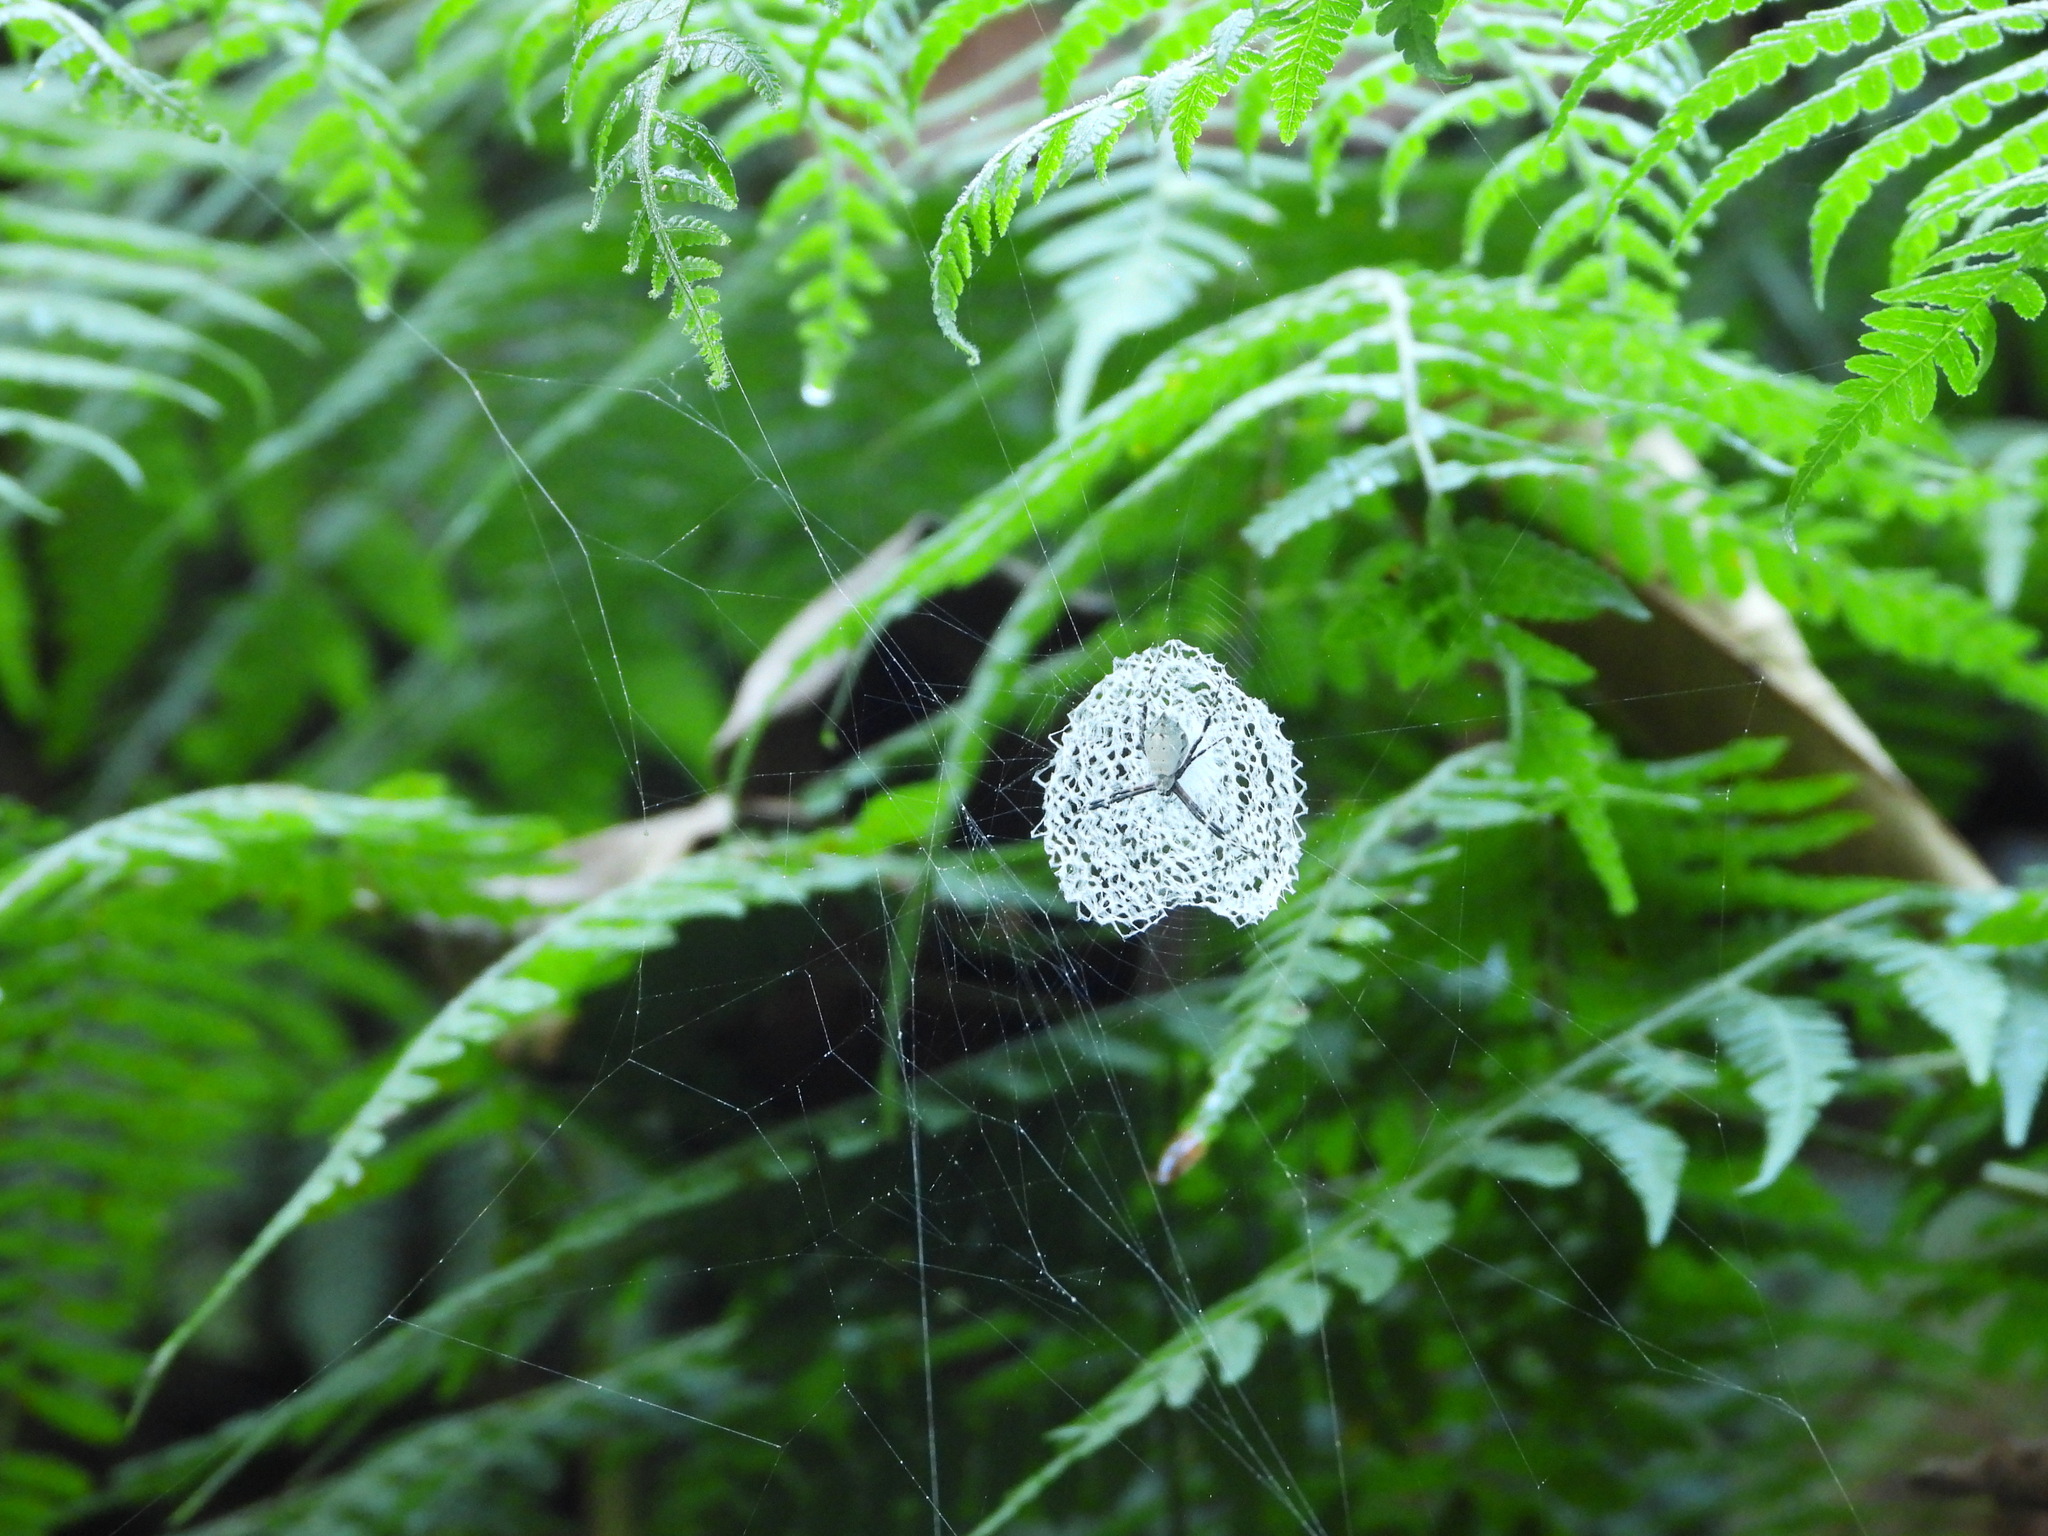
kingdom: Animalia
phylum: Arthropoda
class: Arachnida
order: Araneae
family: Araneidae
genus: Argiope
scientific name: Argiope submaronica
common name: Orb weavers
